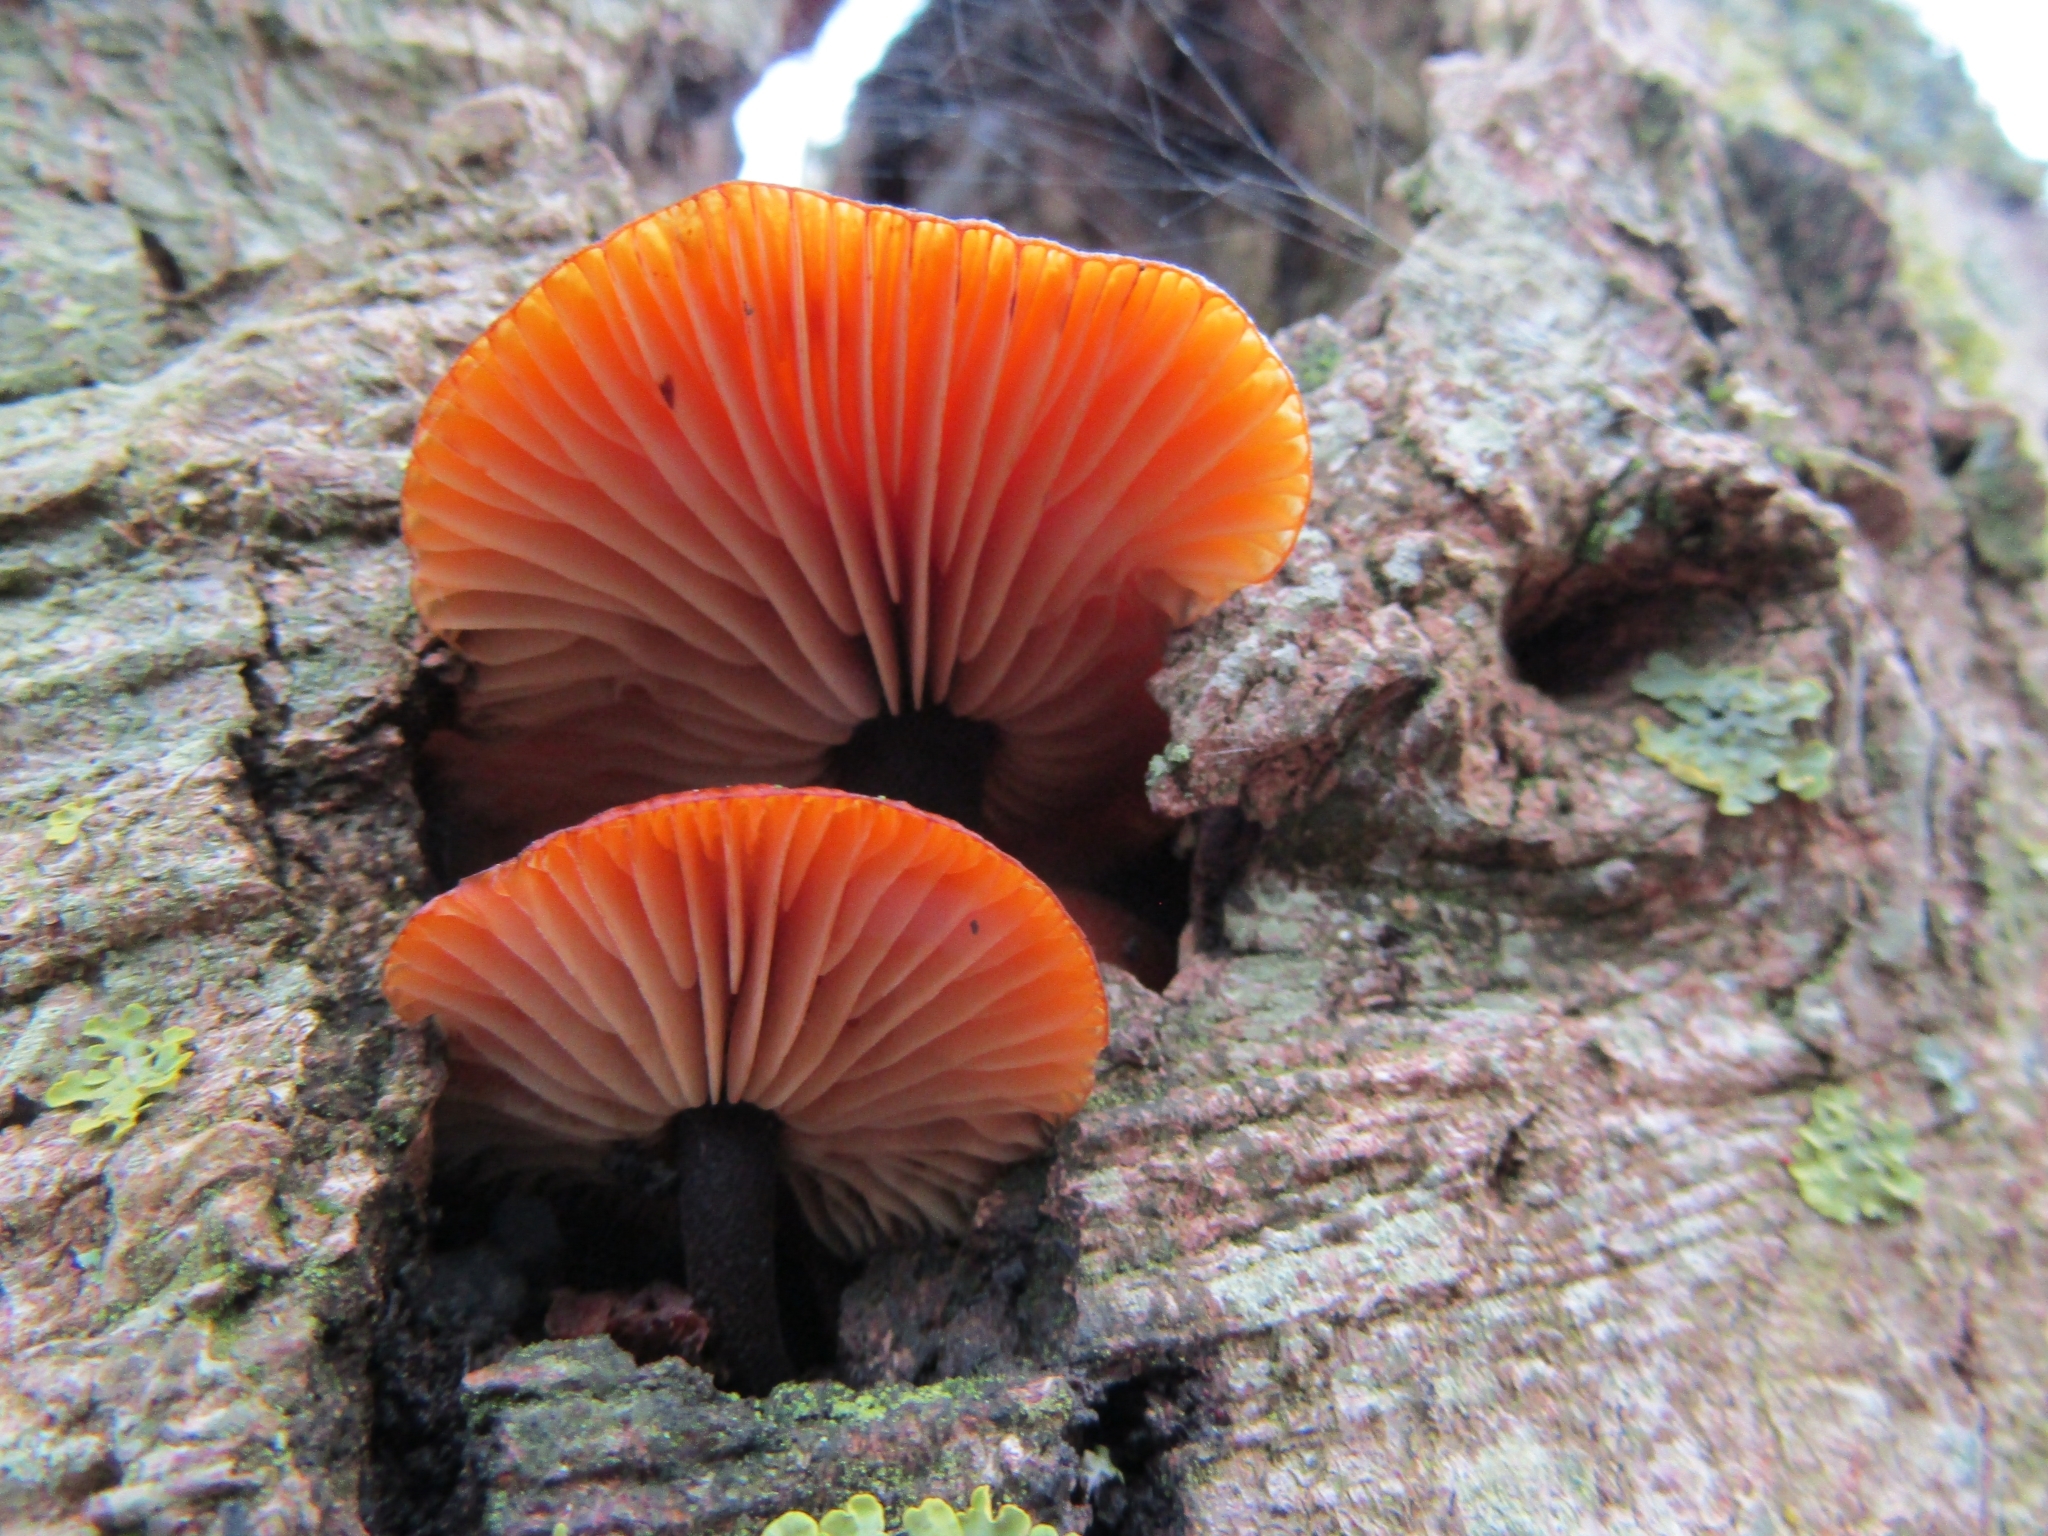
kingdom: Fungi
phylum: Basidiomycota
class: Agaricomycetes
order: Agaricales
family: Physalacriaceae
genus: Flammulina
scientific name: Flammulina
